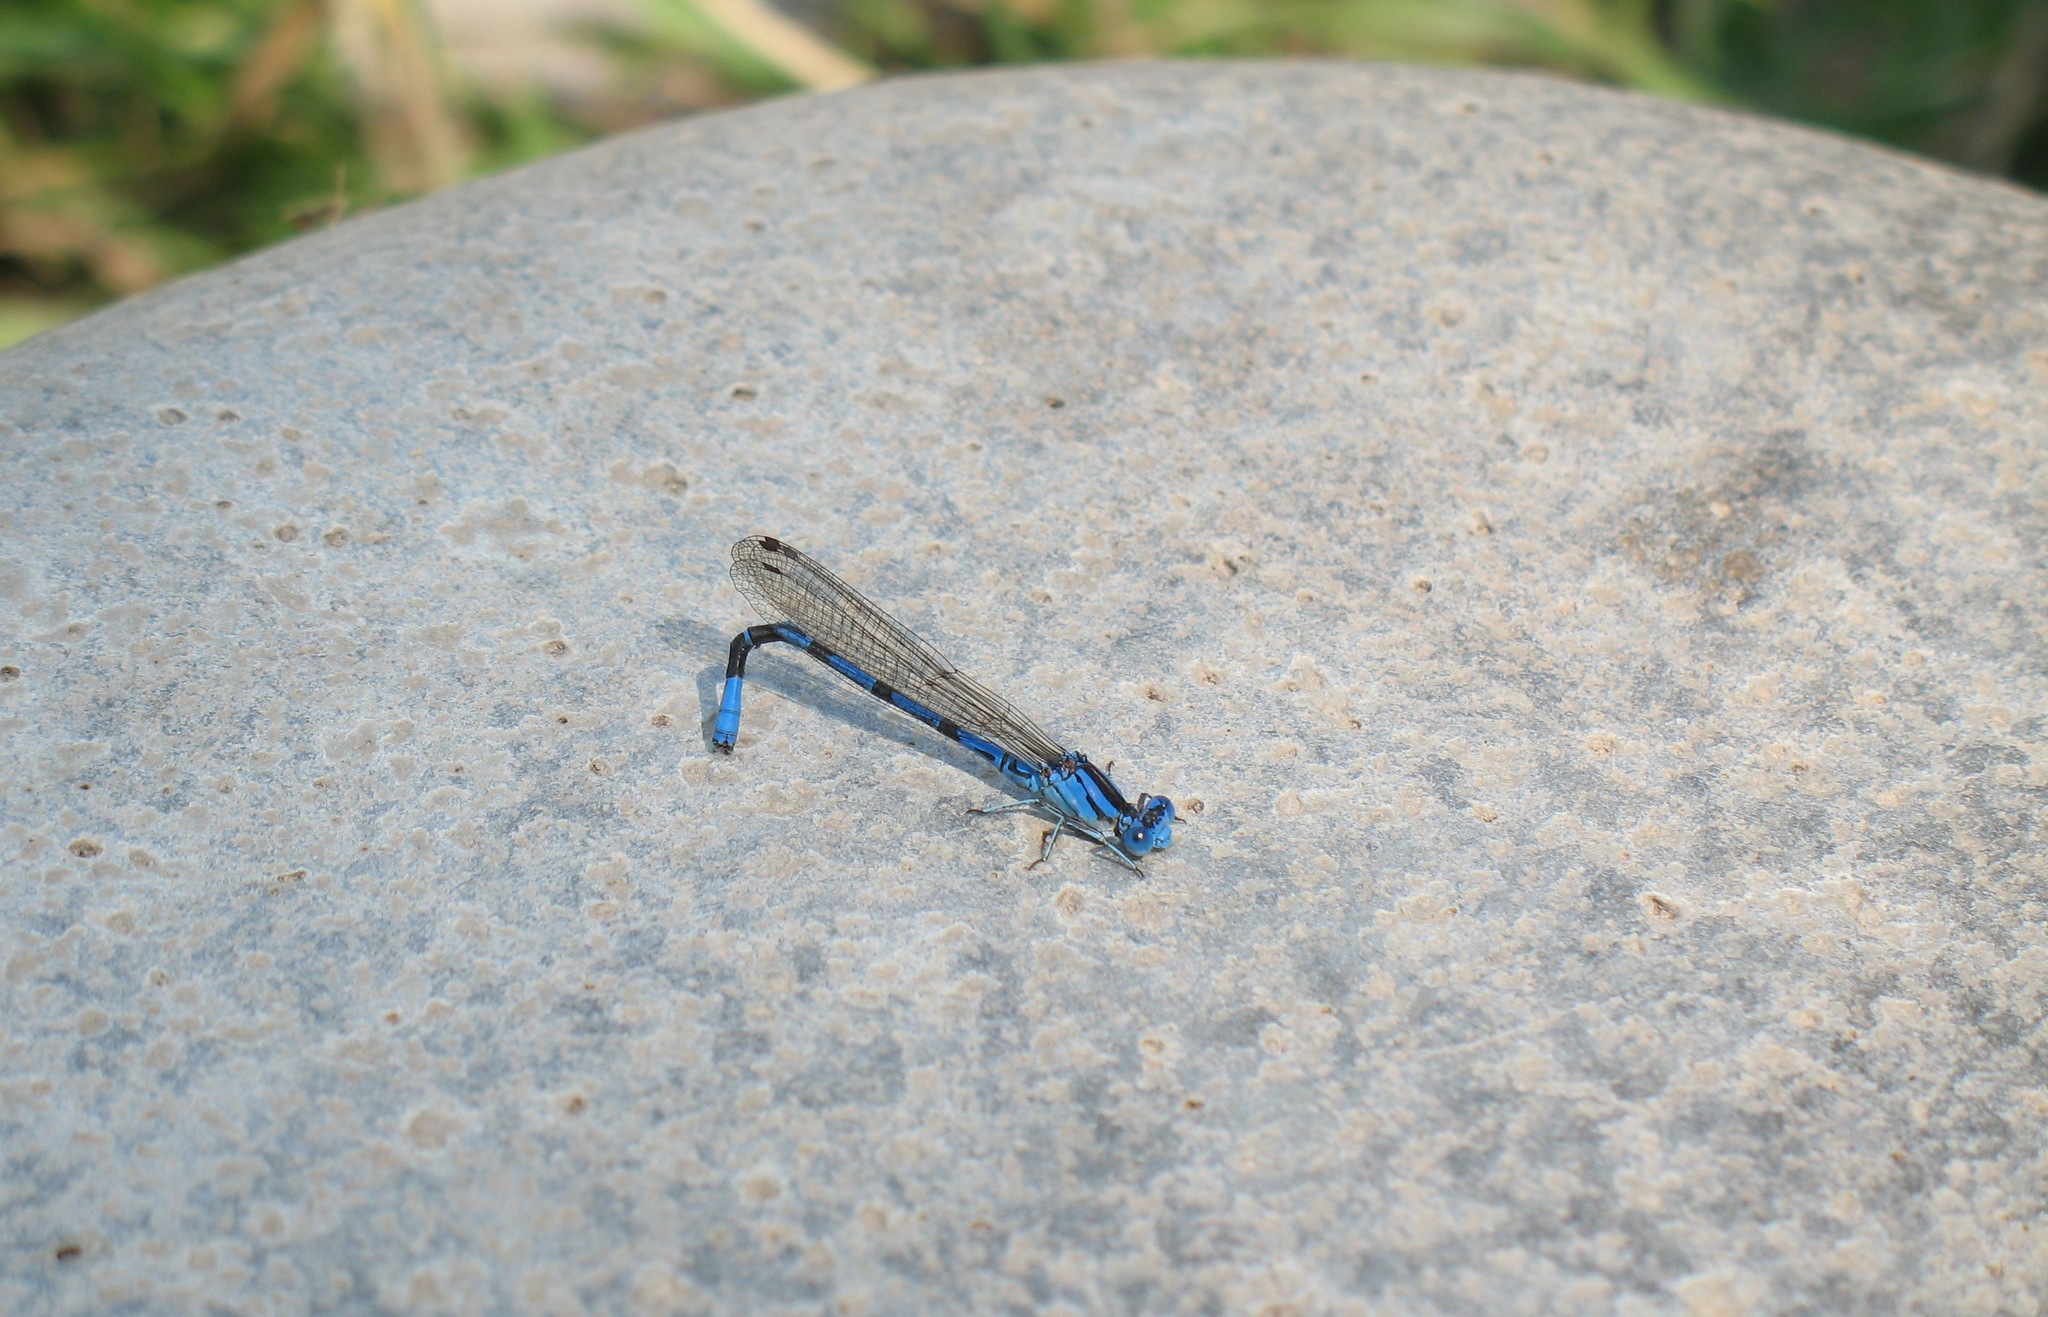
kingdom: Animalia
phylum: Arthropoda
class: Insecta
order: Odonata
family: Coenagrionidae
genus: Argia
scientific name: Argia vivida
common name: Vivid dancer
